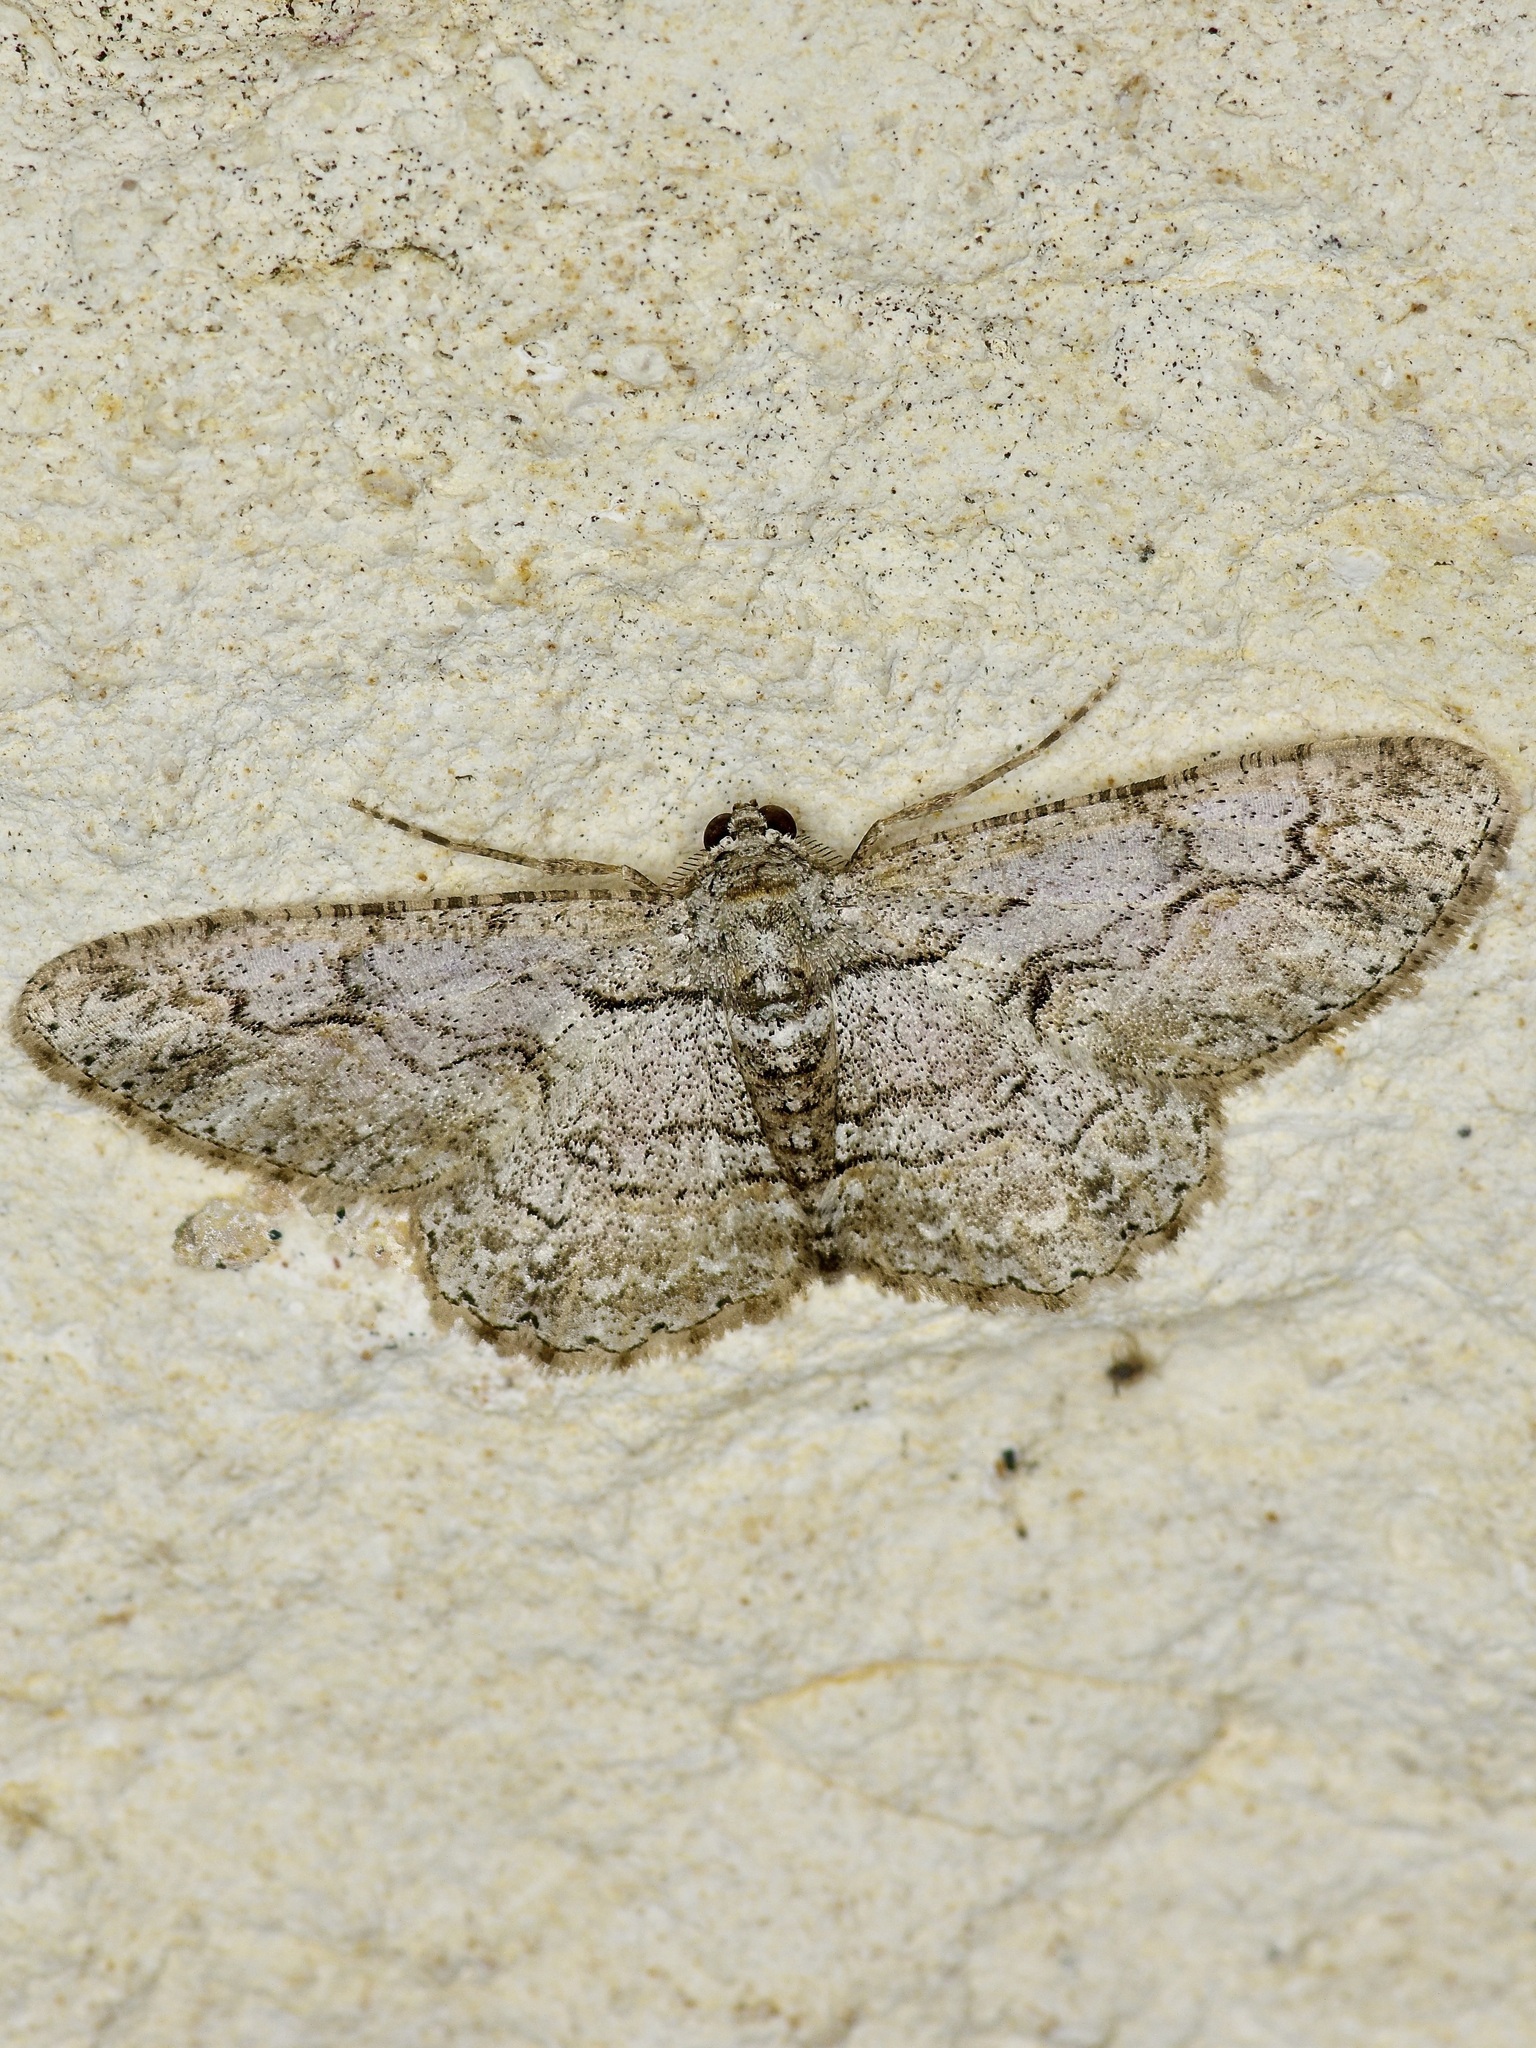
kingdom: Animalia
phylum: Arthropoda
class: Insecta
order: Lepidoptera
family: Geometridae
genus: Iridopsis
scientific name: Iridopsis defectaria
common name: Brown-shaded gray
